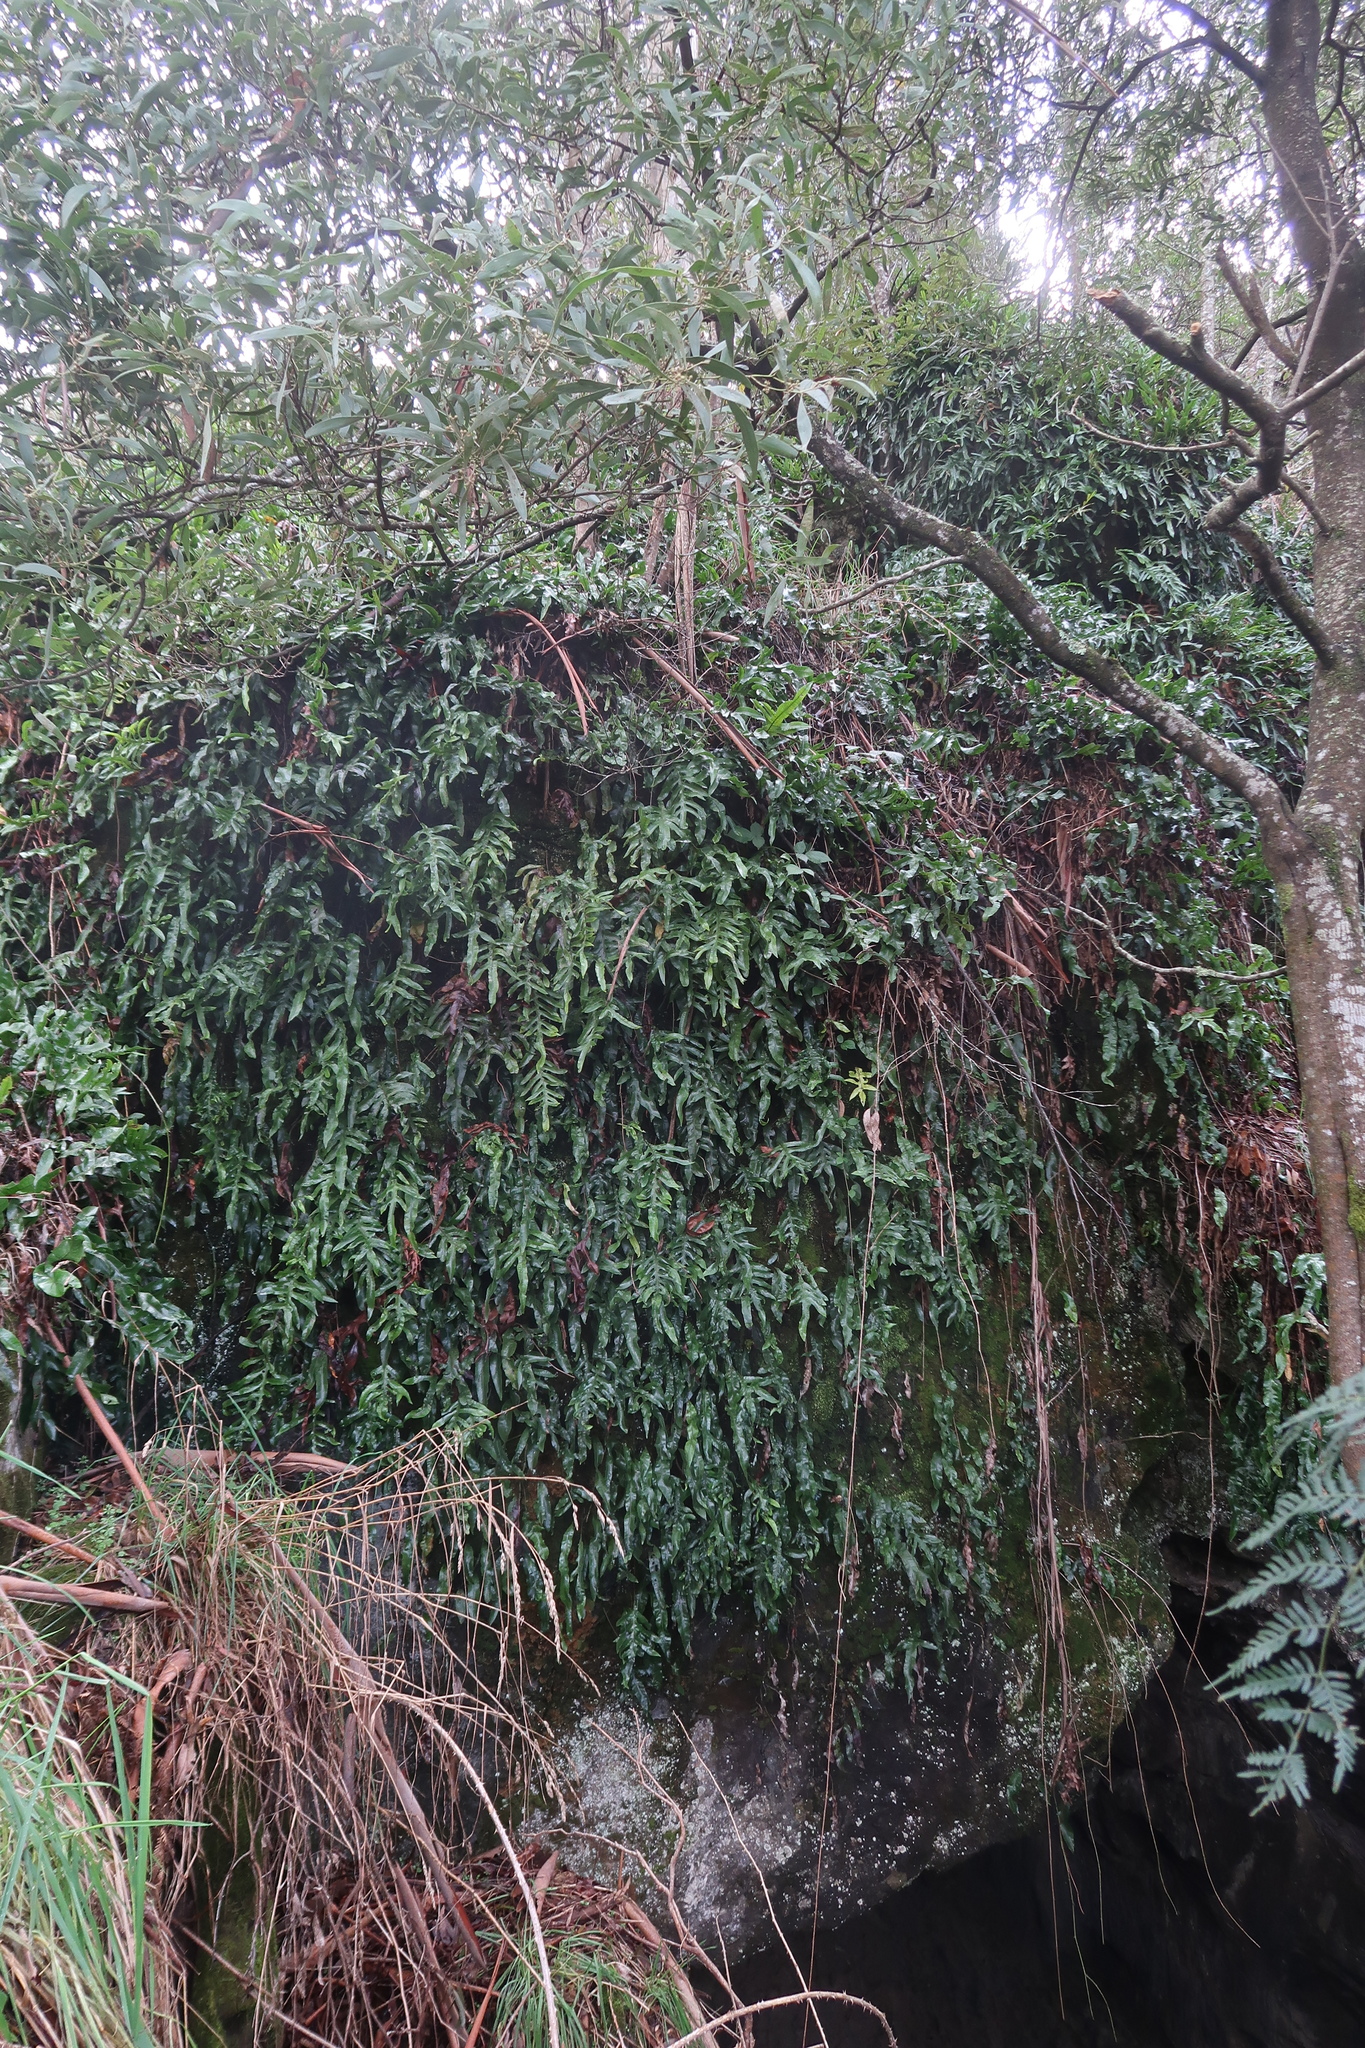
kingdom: Plantae
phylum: Tracheophyta
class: Polypodiopsida
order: Polypodiales
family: Polypodiaceae
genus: Lecanopteris
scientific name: Lecanopteris pustulata
